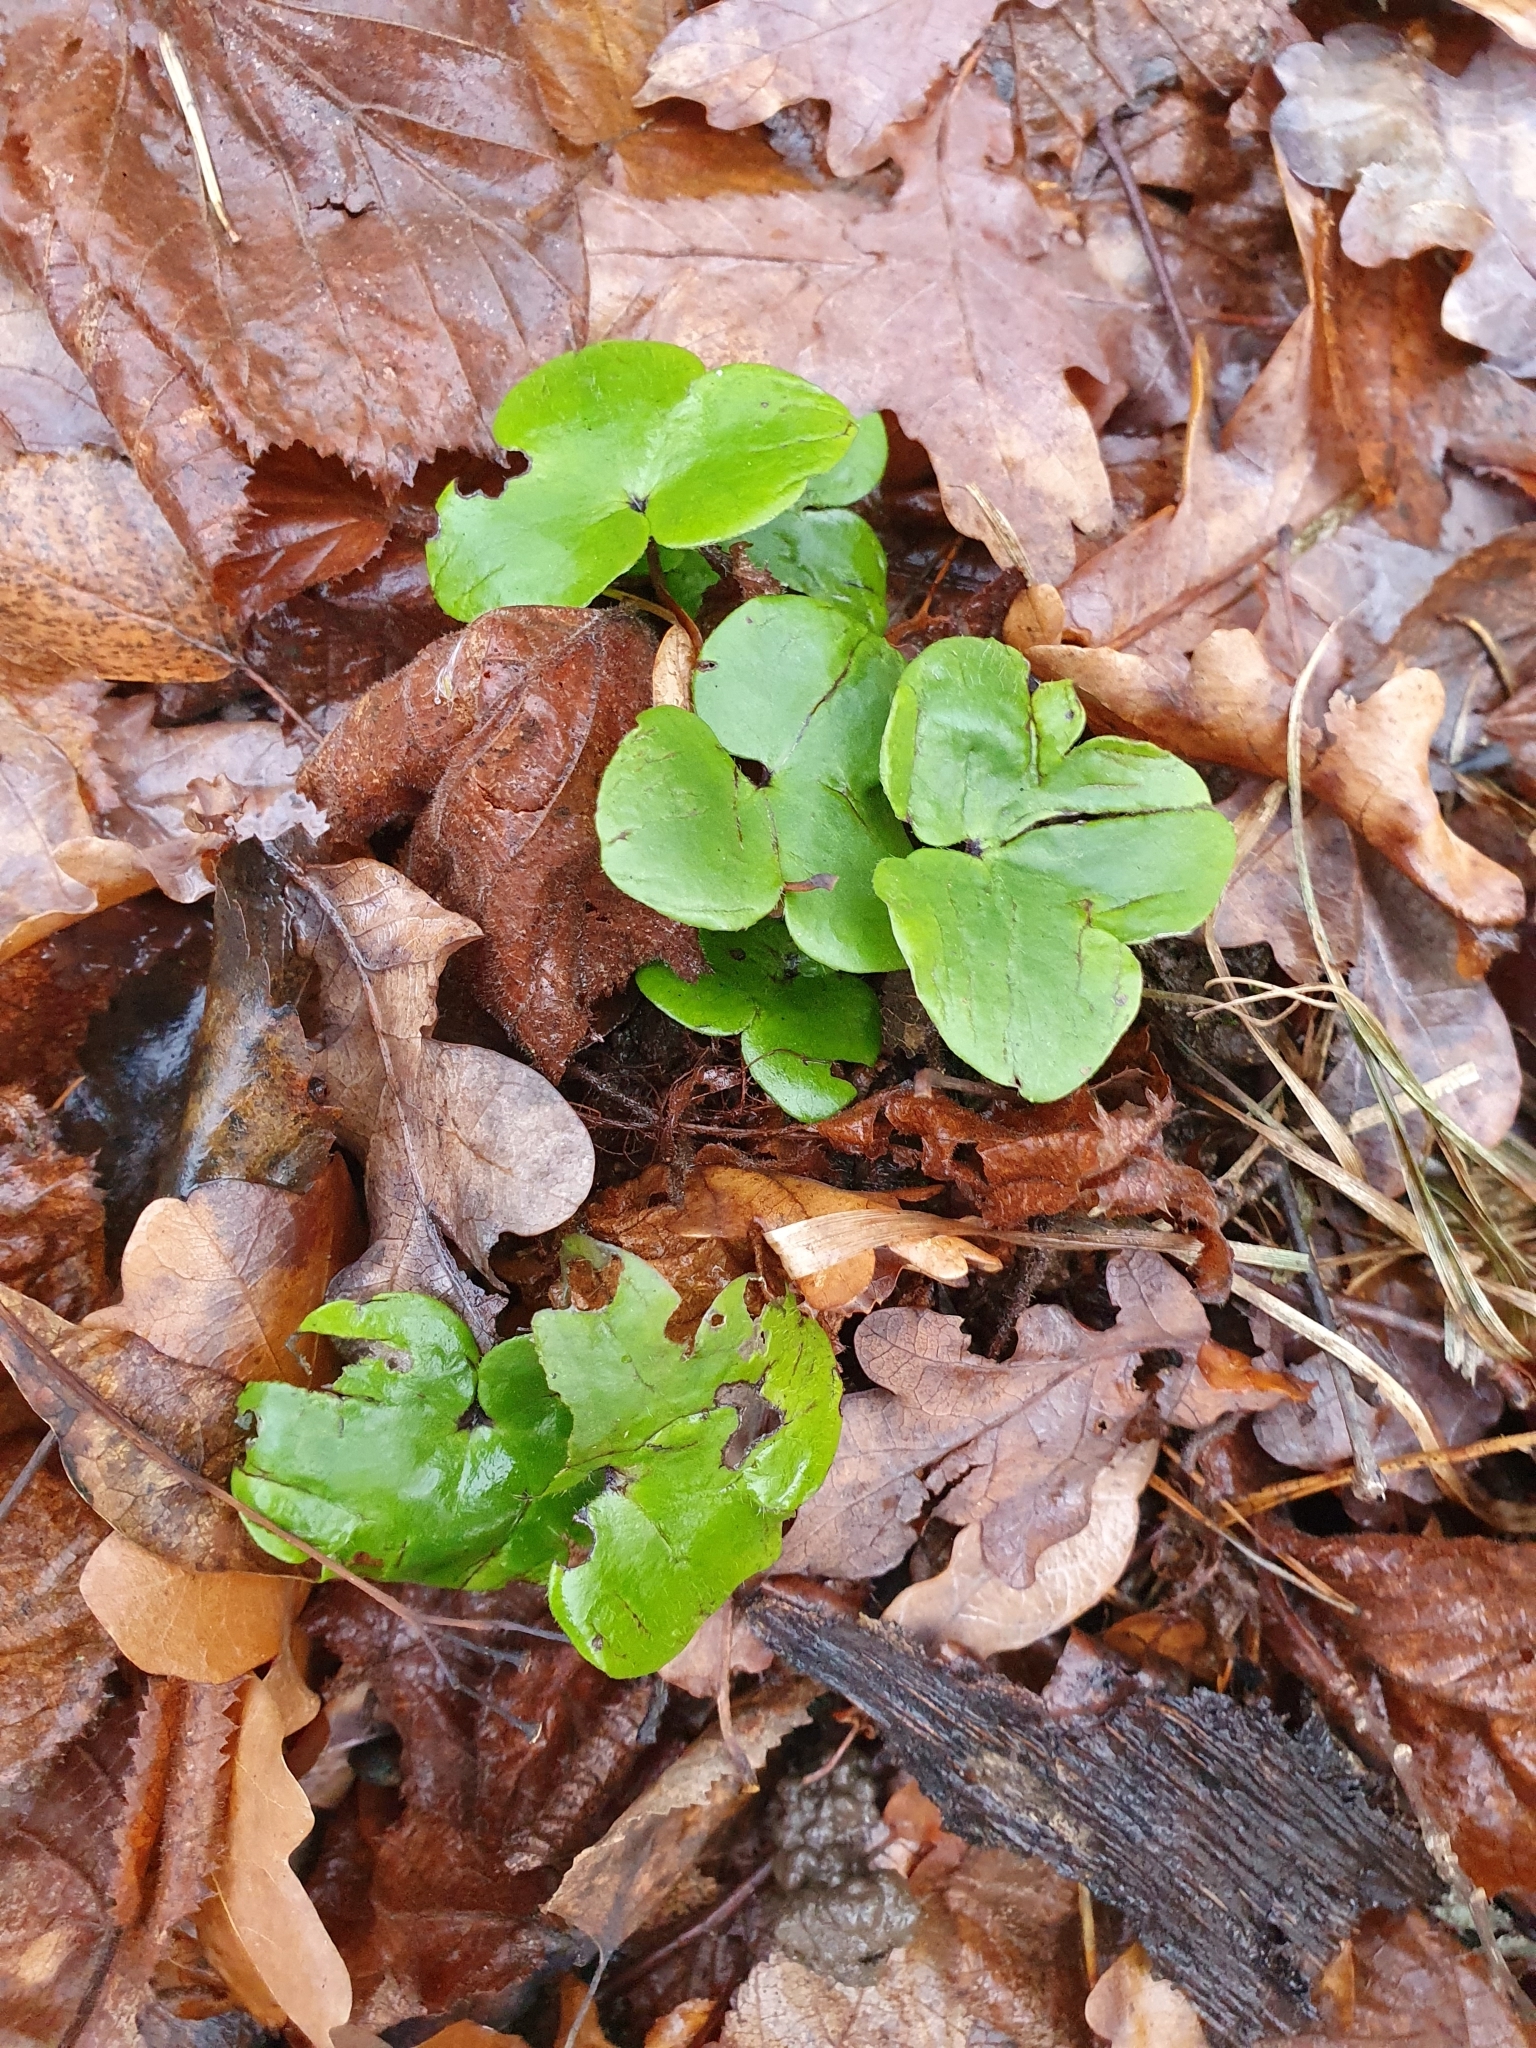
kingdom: Plantae
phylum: Tracheophyta
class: Magnoliopsida
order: Ranunculales
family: Ranunculaceae
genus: Hepatica
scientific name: Hepatica nobilis
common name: Liverleaf
